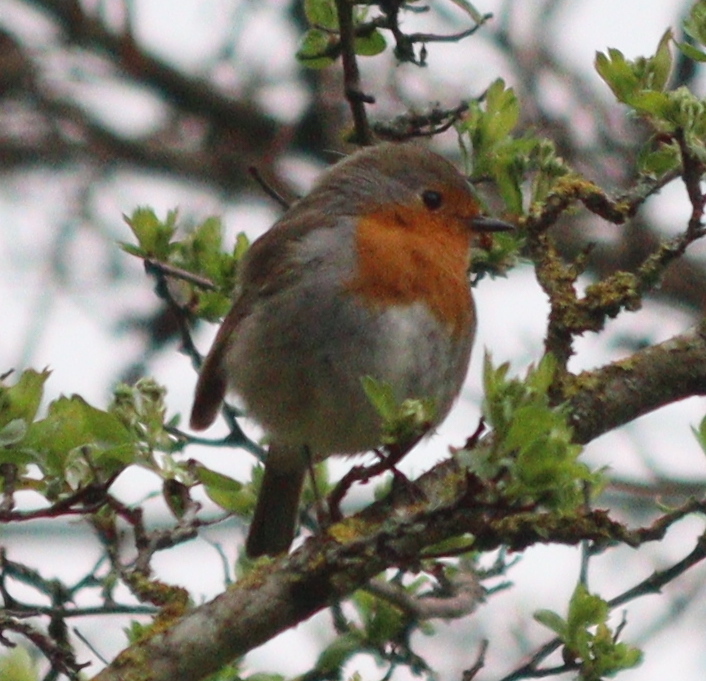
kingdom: Animalia
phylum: Chordata
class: Aves
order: Passeriformes
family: Muscicapidae
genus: Erithacus
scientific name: Erithacus rubecula
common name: European robin
